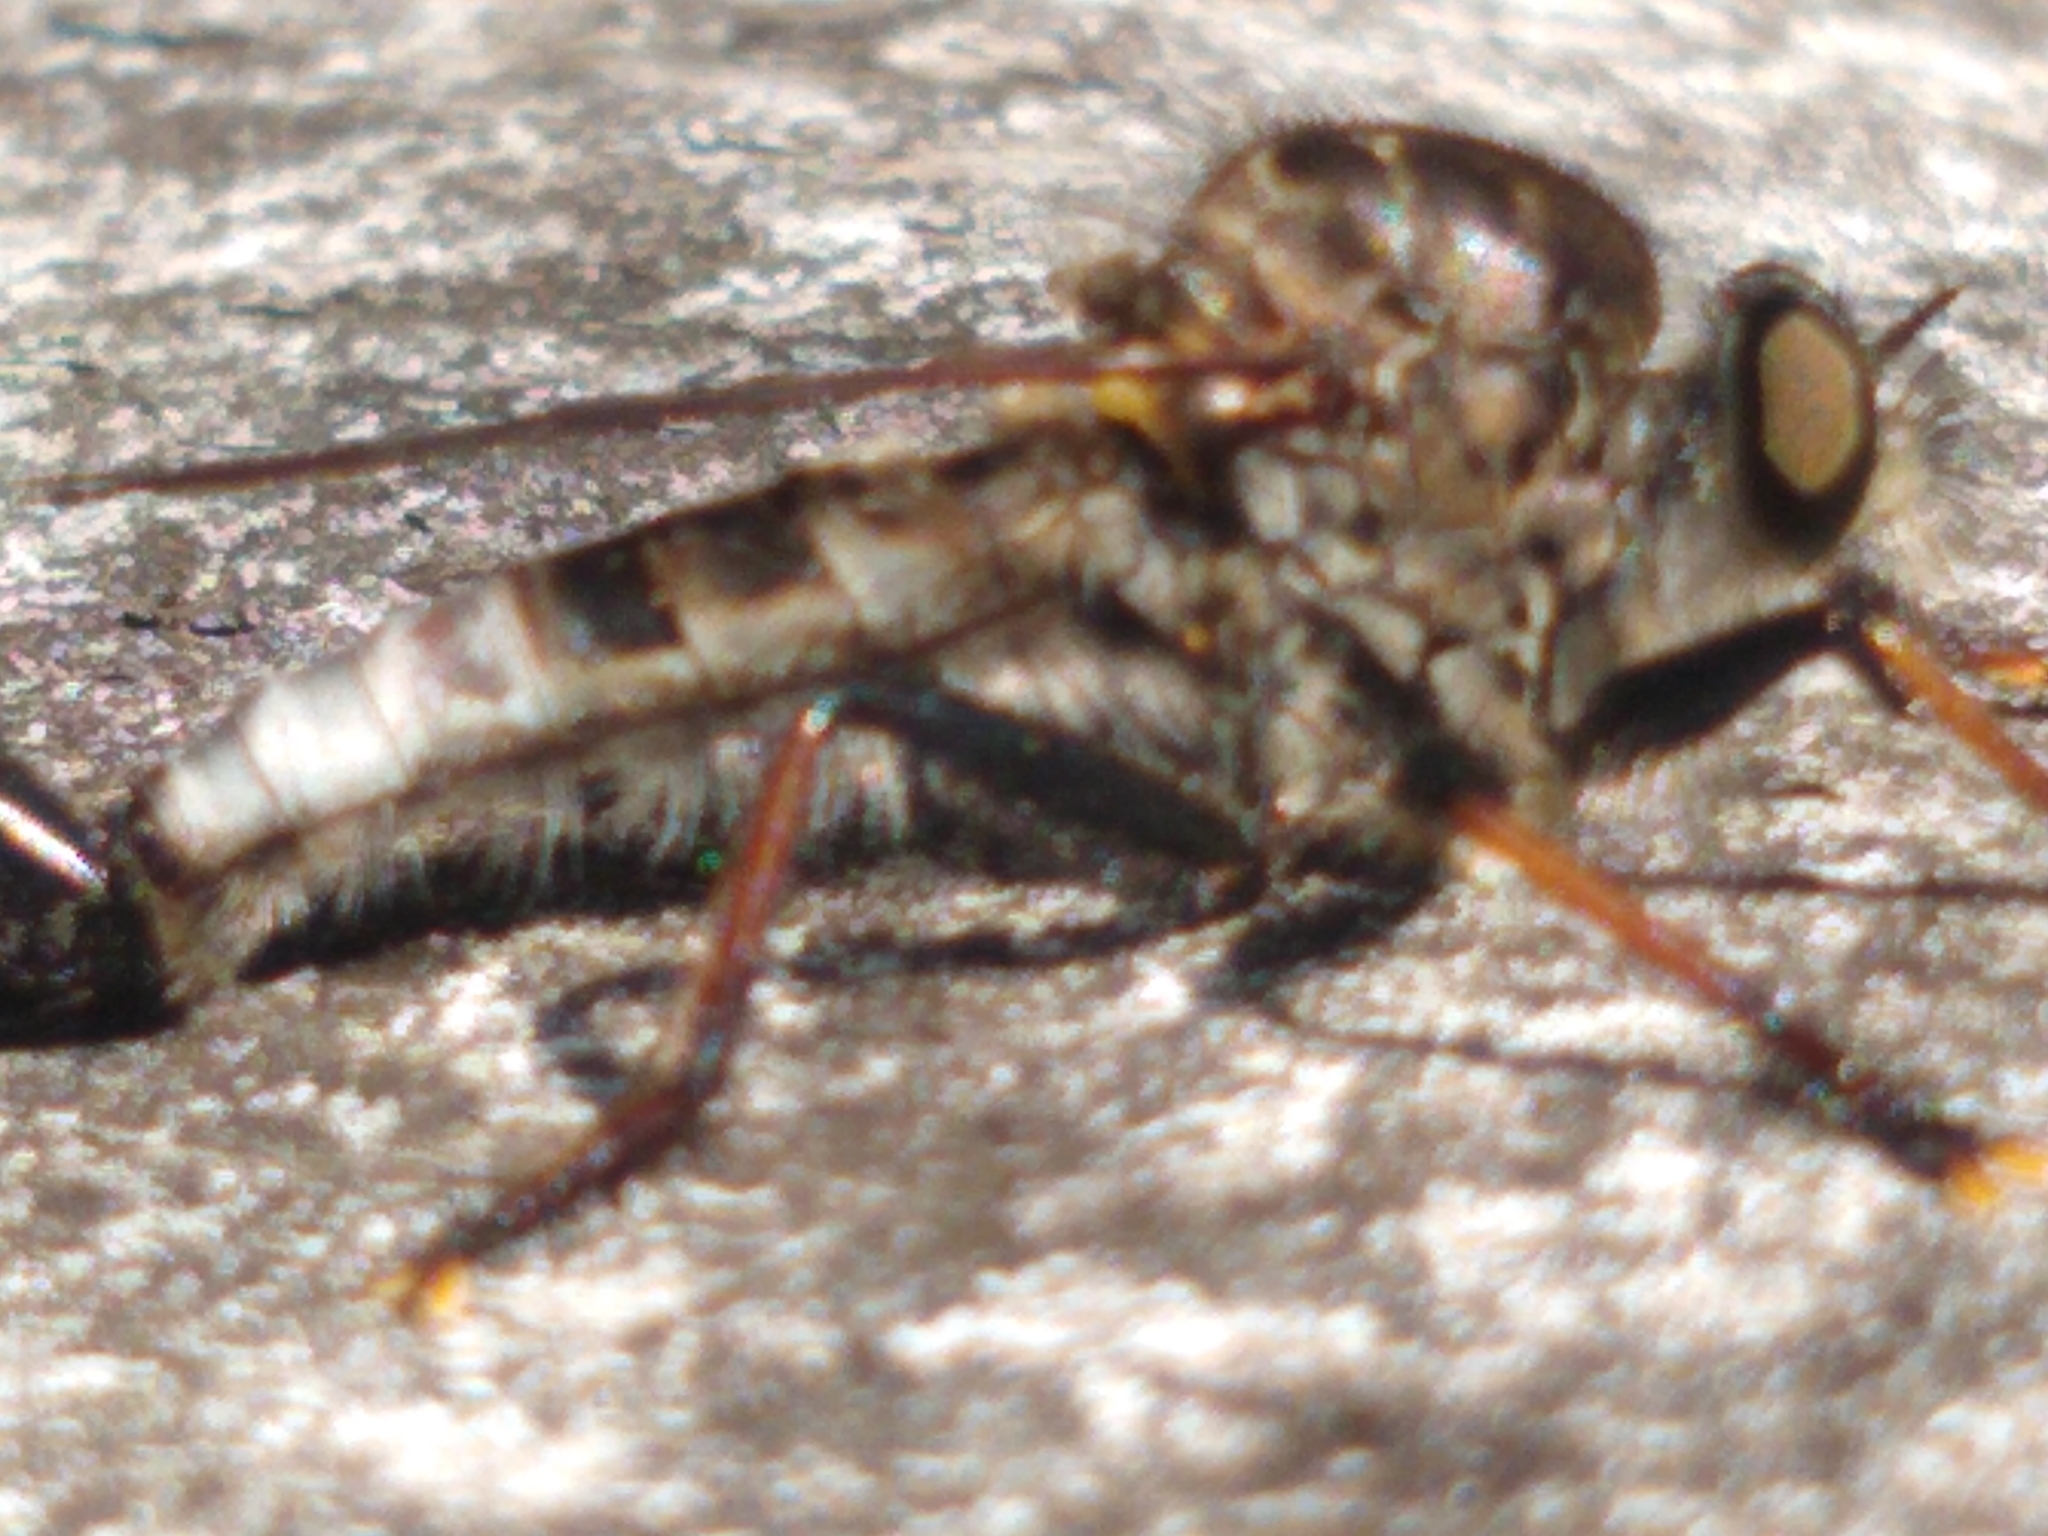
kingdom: Animalia
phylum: Arthropoda
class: Insecta
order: Diptera
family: Asilidae
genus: Efferia
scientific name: Efferia aestuans
